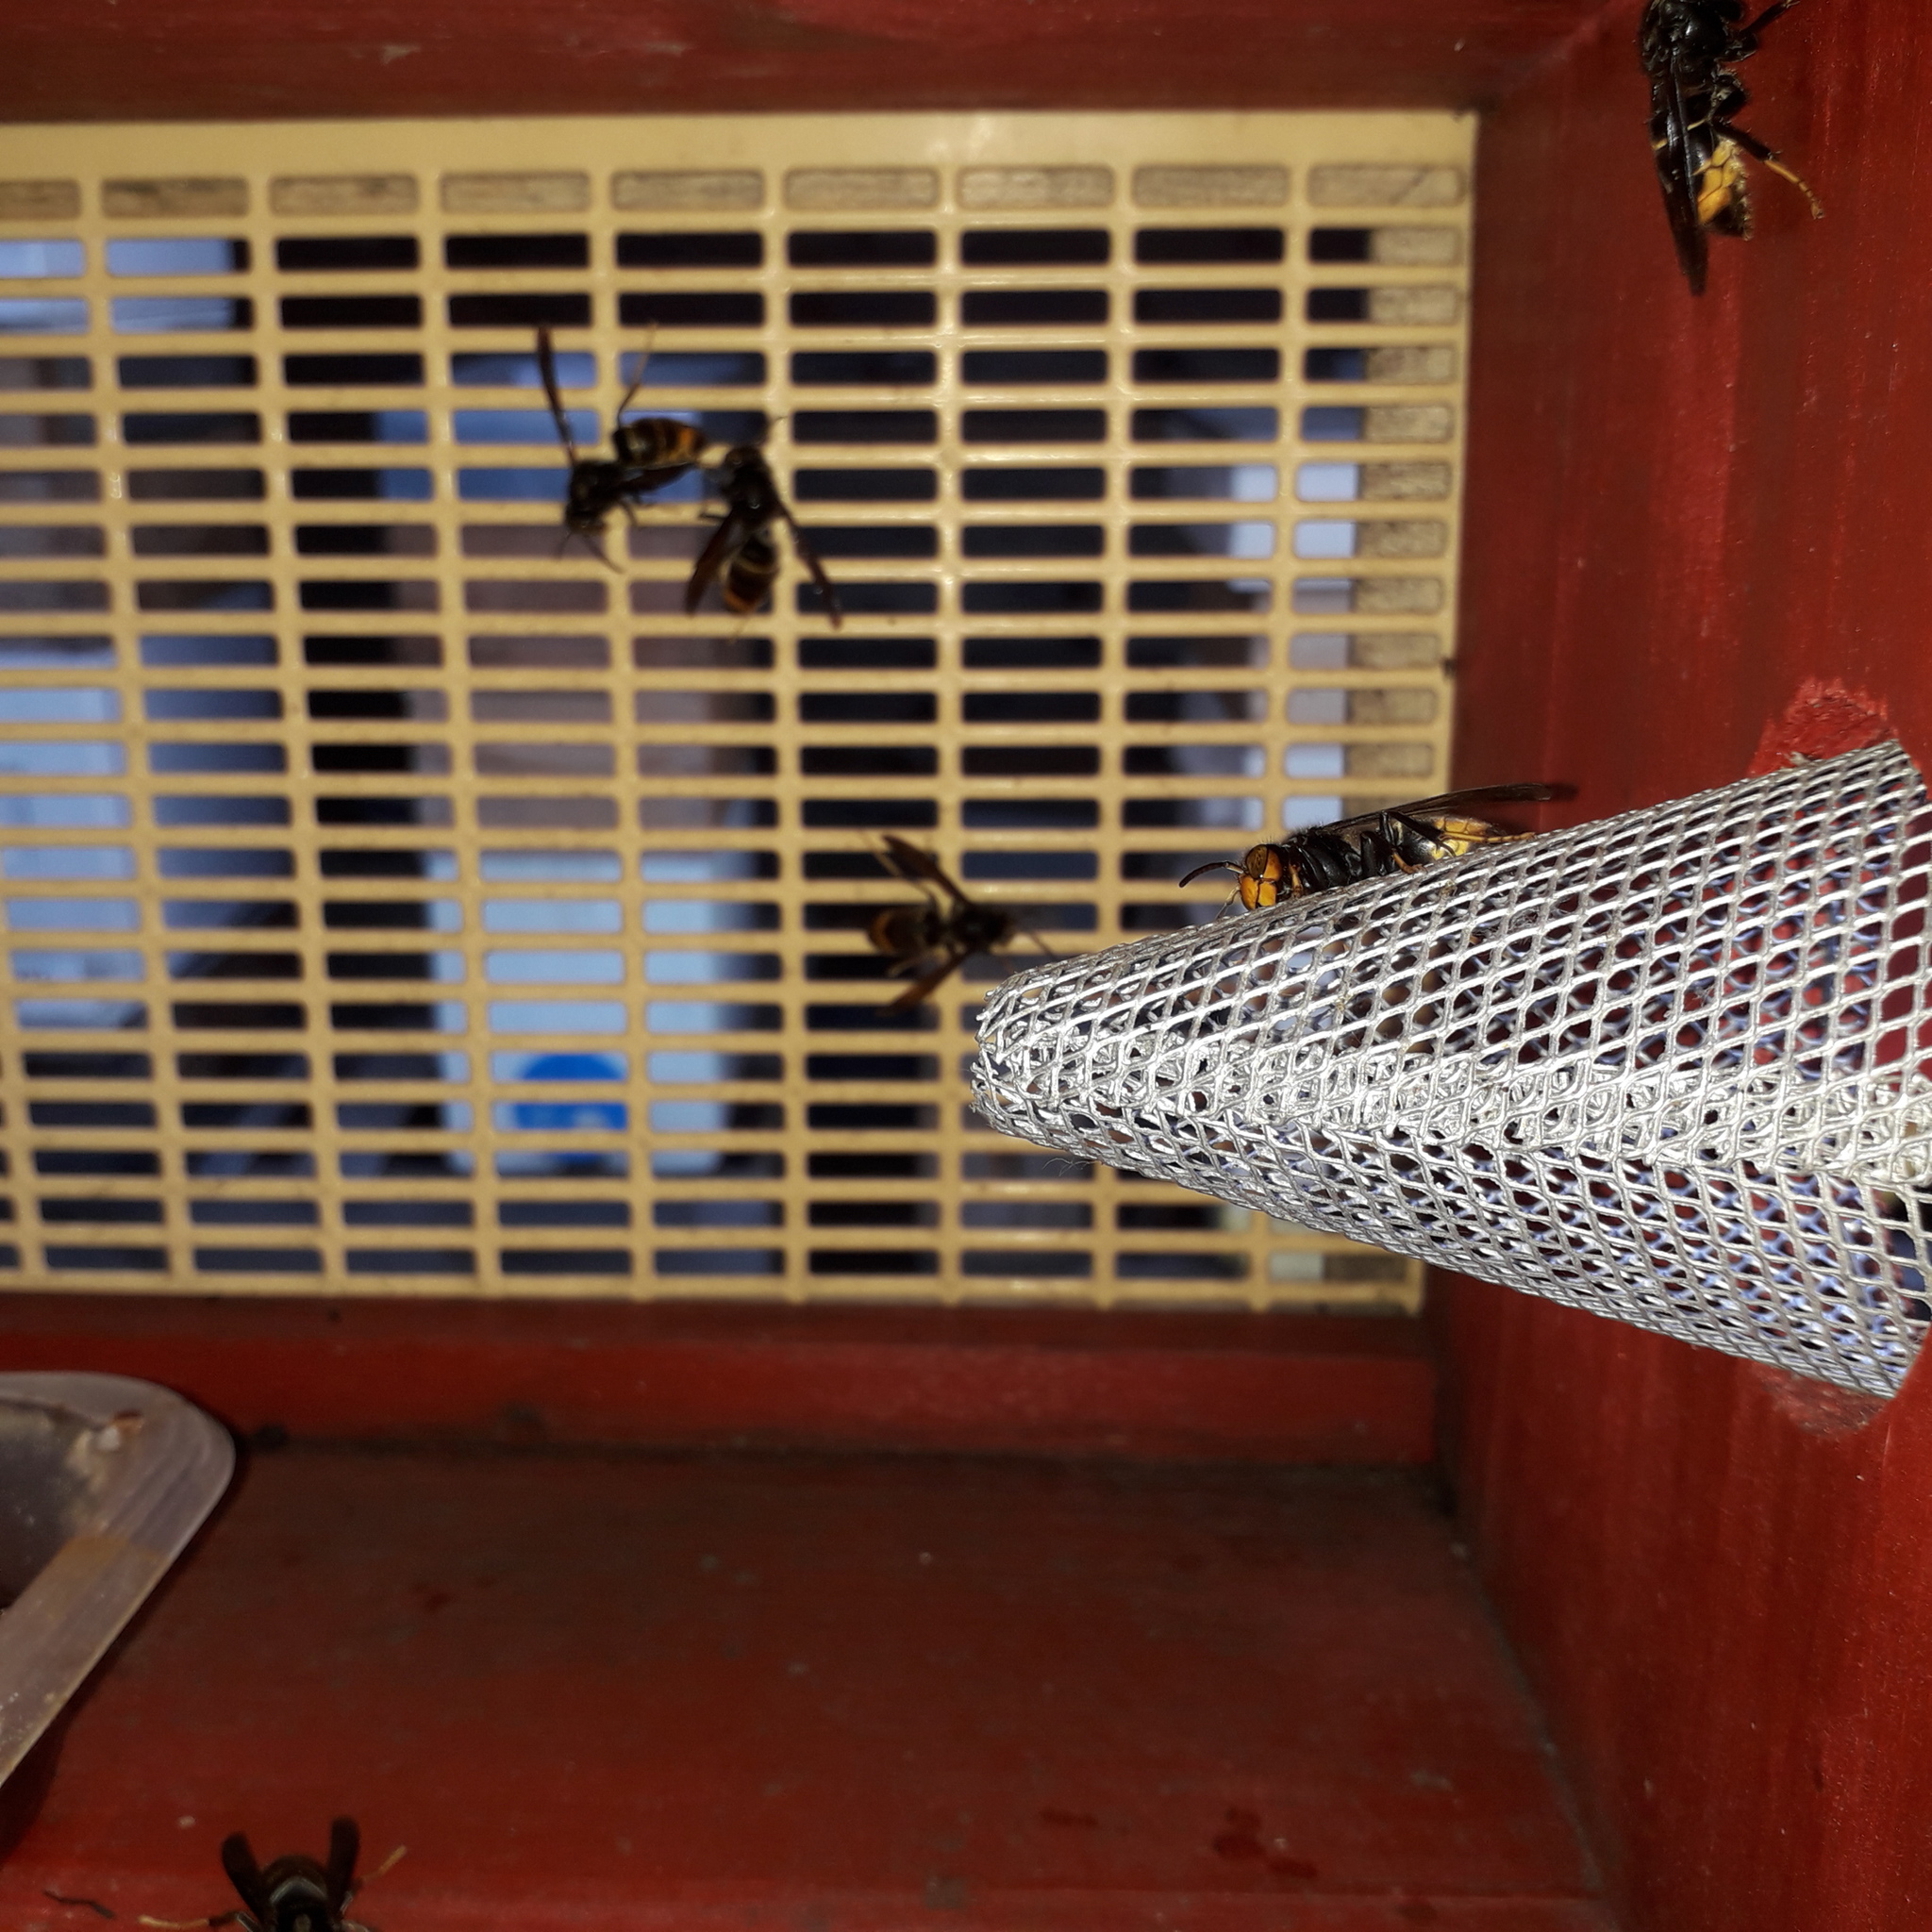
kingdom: Animalia
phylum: Arthropoda
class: Insecta
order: Hymenoptera
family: Vespidae
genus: Vespa
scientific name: Vespa velutina
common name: Asian hornet
